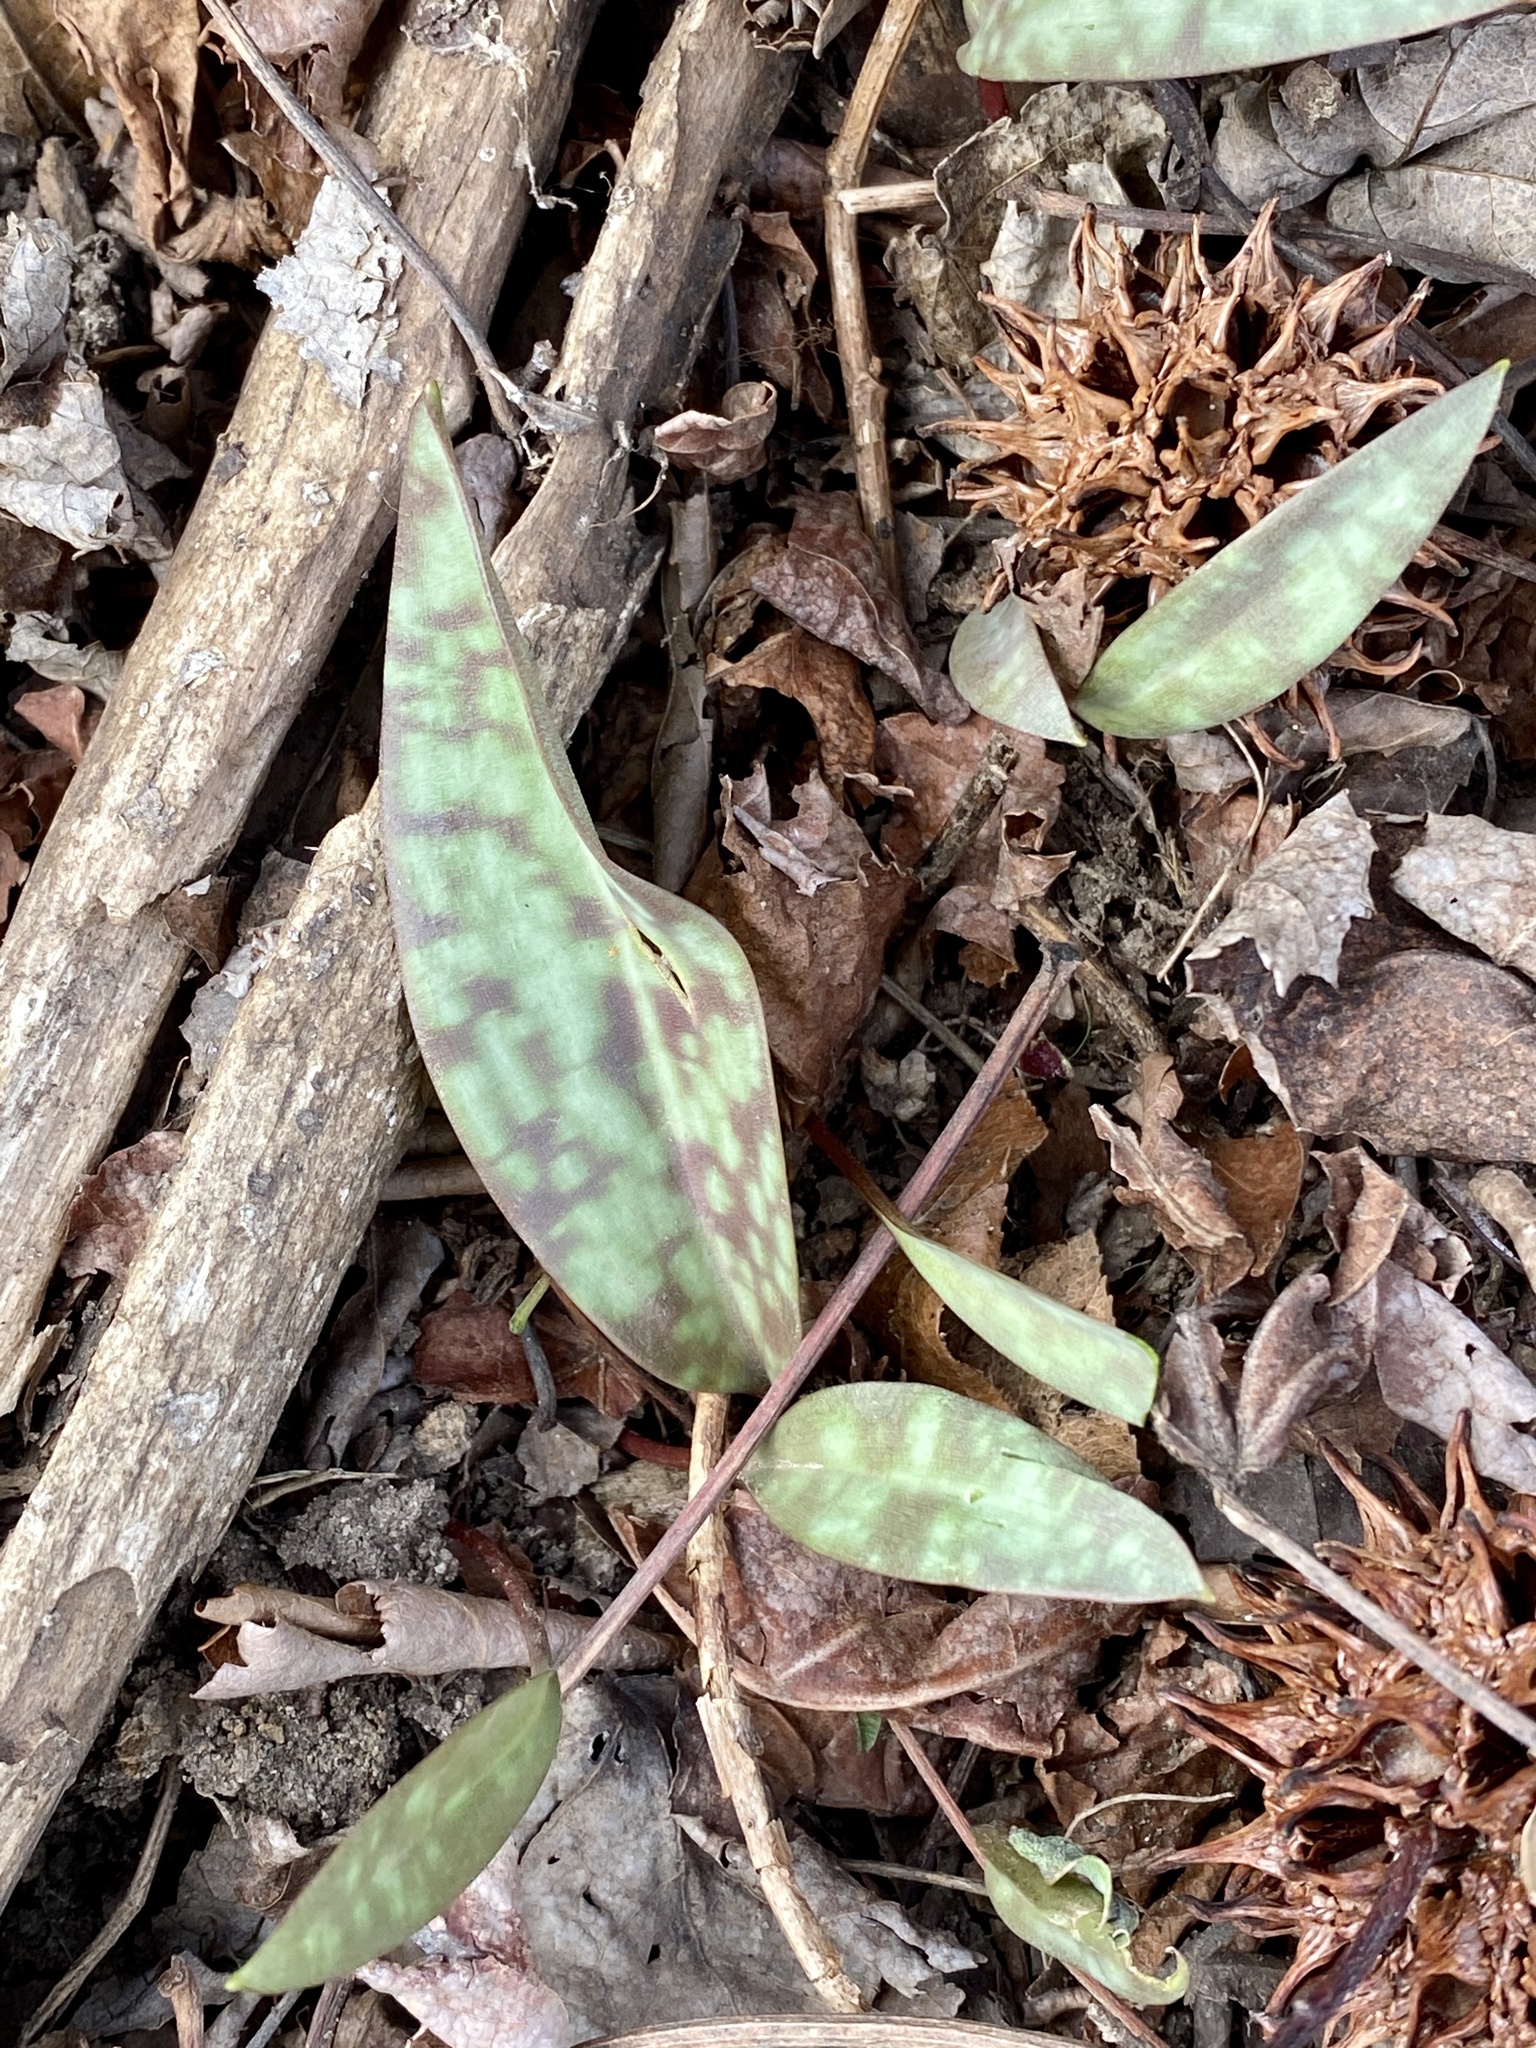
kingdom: Plantae
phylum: Tracheophyta
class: Liliopsida
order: Liliales
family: Liliaceae
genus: Erythronium
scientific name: Erythronium americanum
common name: Yellow adder's-tongue
